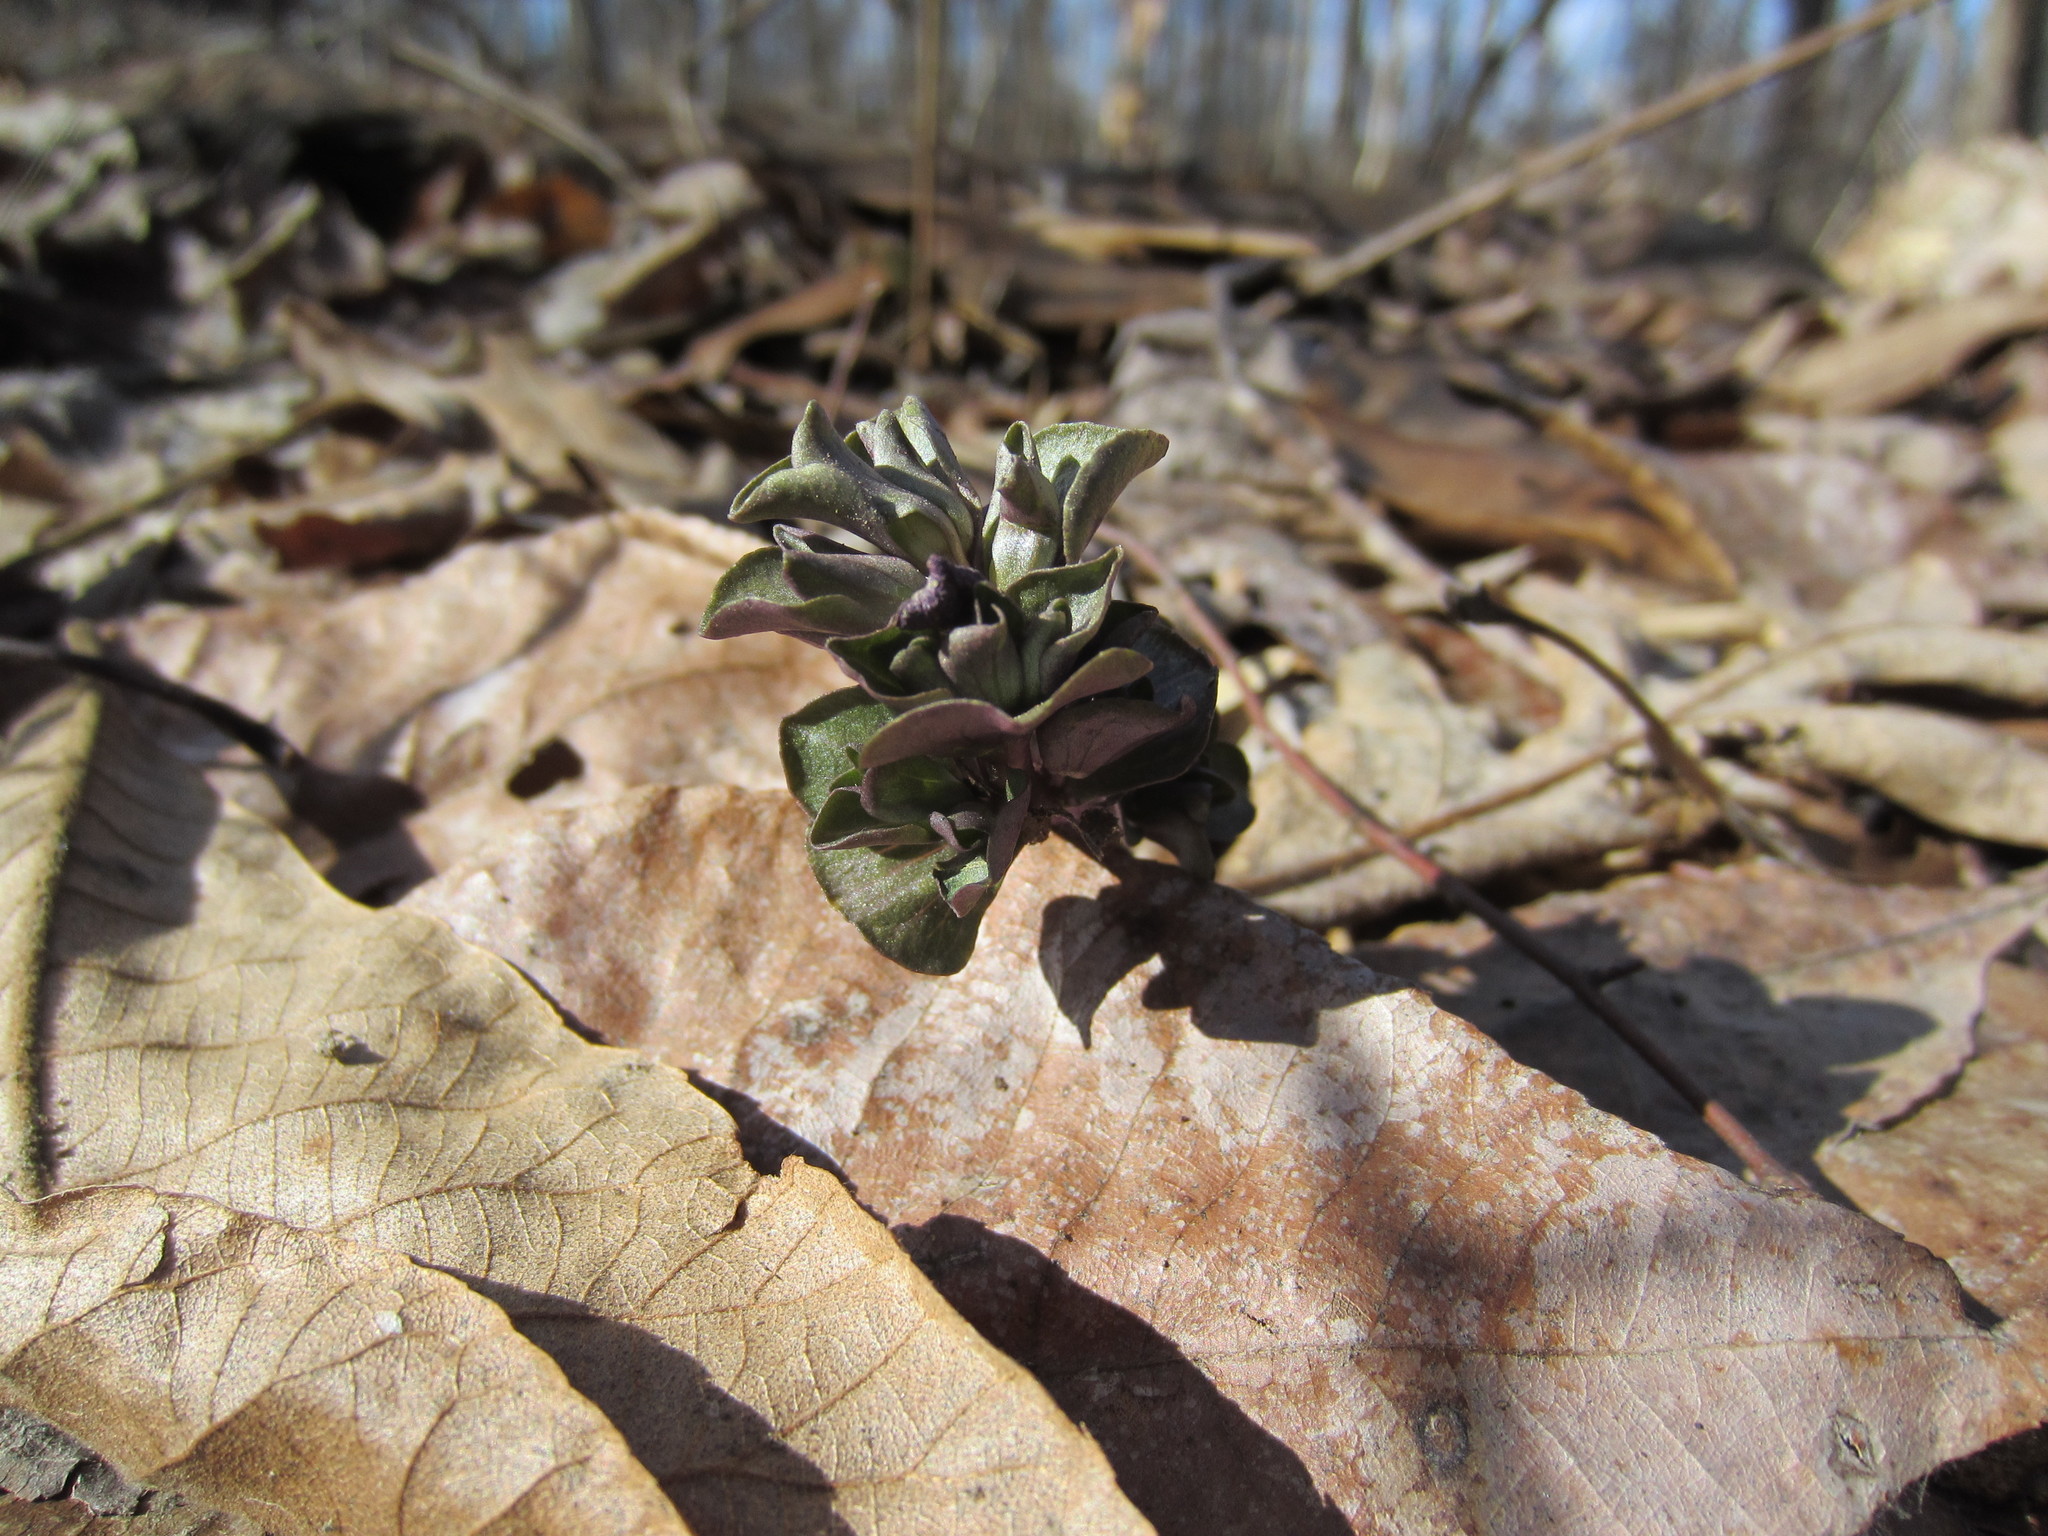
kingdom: Plantae
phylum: Tracheophyta
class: Magnoliopsida
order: Gentianales
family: Gentianaceae
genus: Obolaria
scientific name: Obolaria virginica
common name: Pennywort
